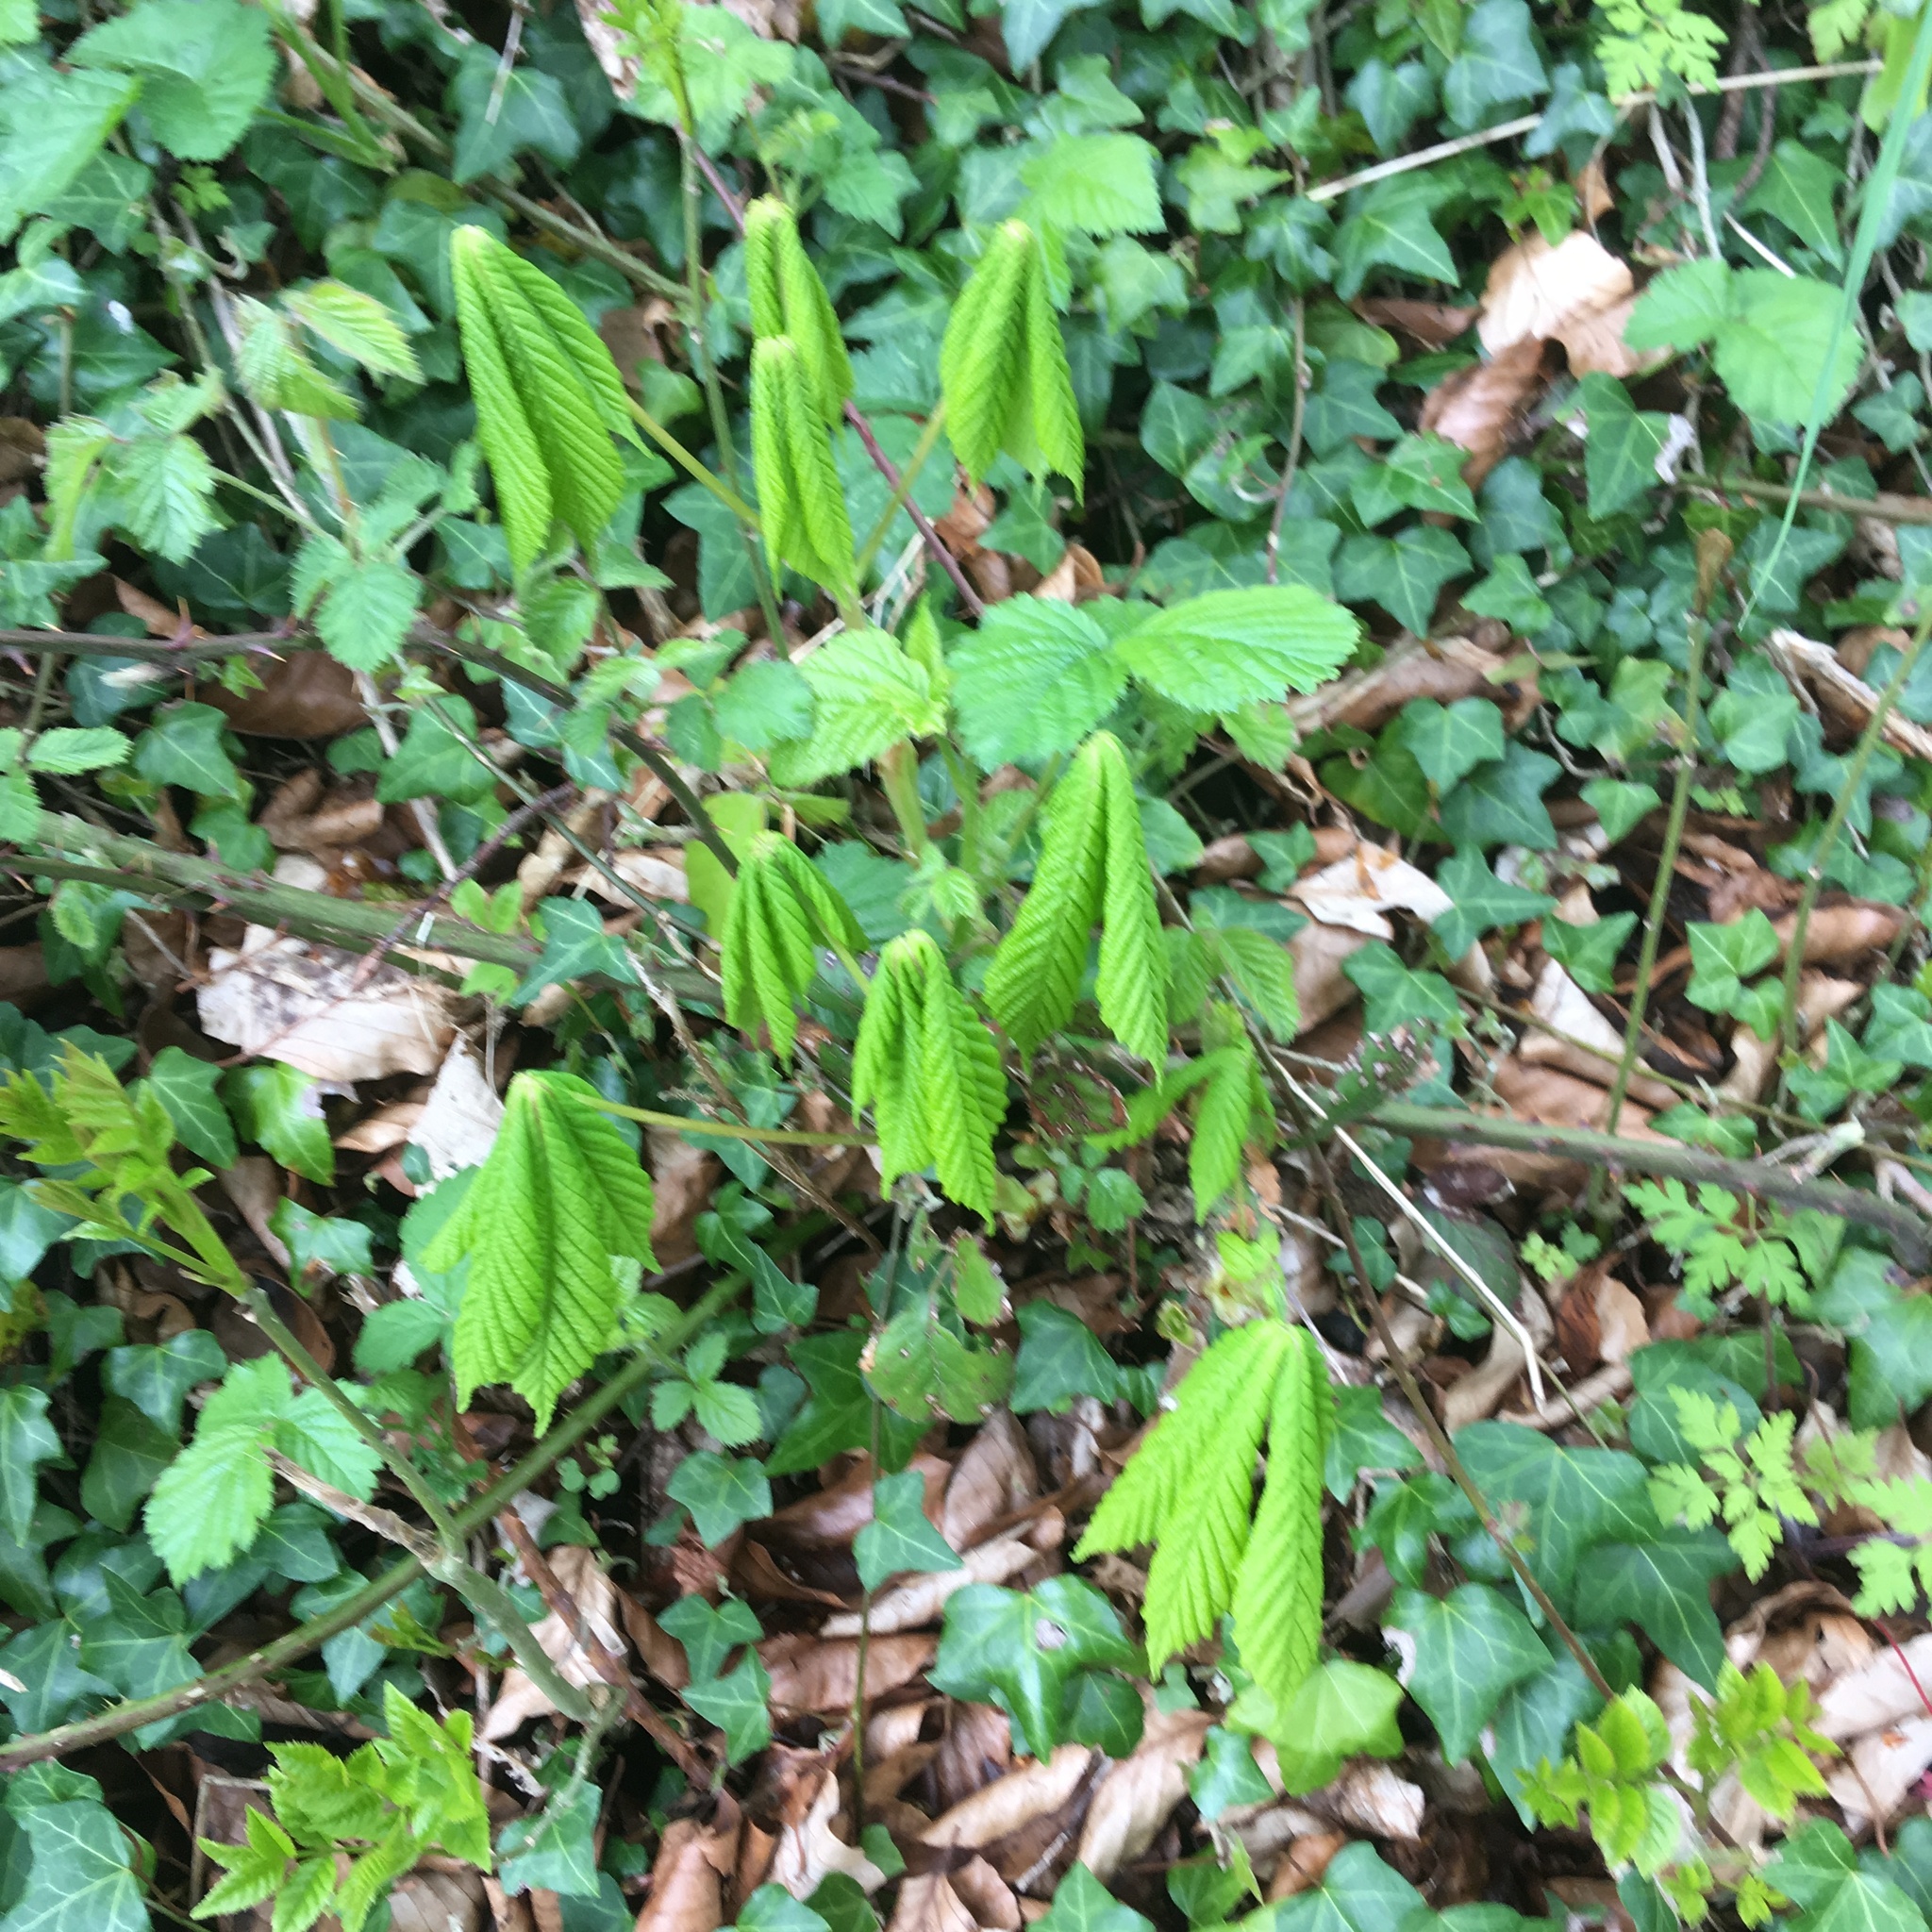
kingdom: Plantae
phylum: Tracheophyta
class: Magnoliopsida
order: Sapindales
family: Sapindaceae
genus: Aesculus
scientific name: Aesculus hippocastanum
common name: Horse-chestnut
